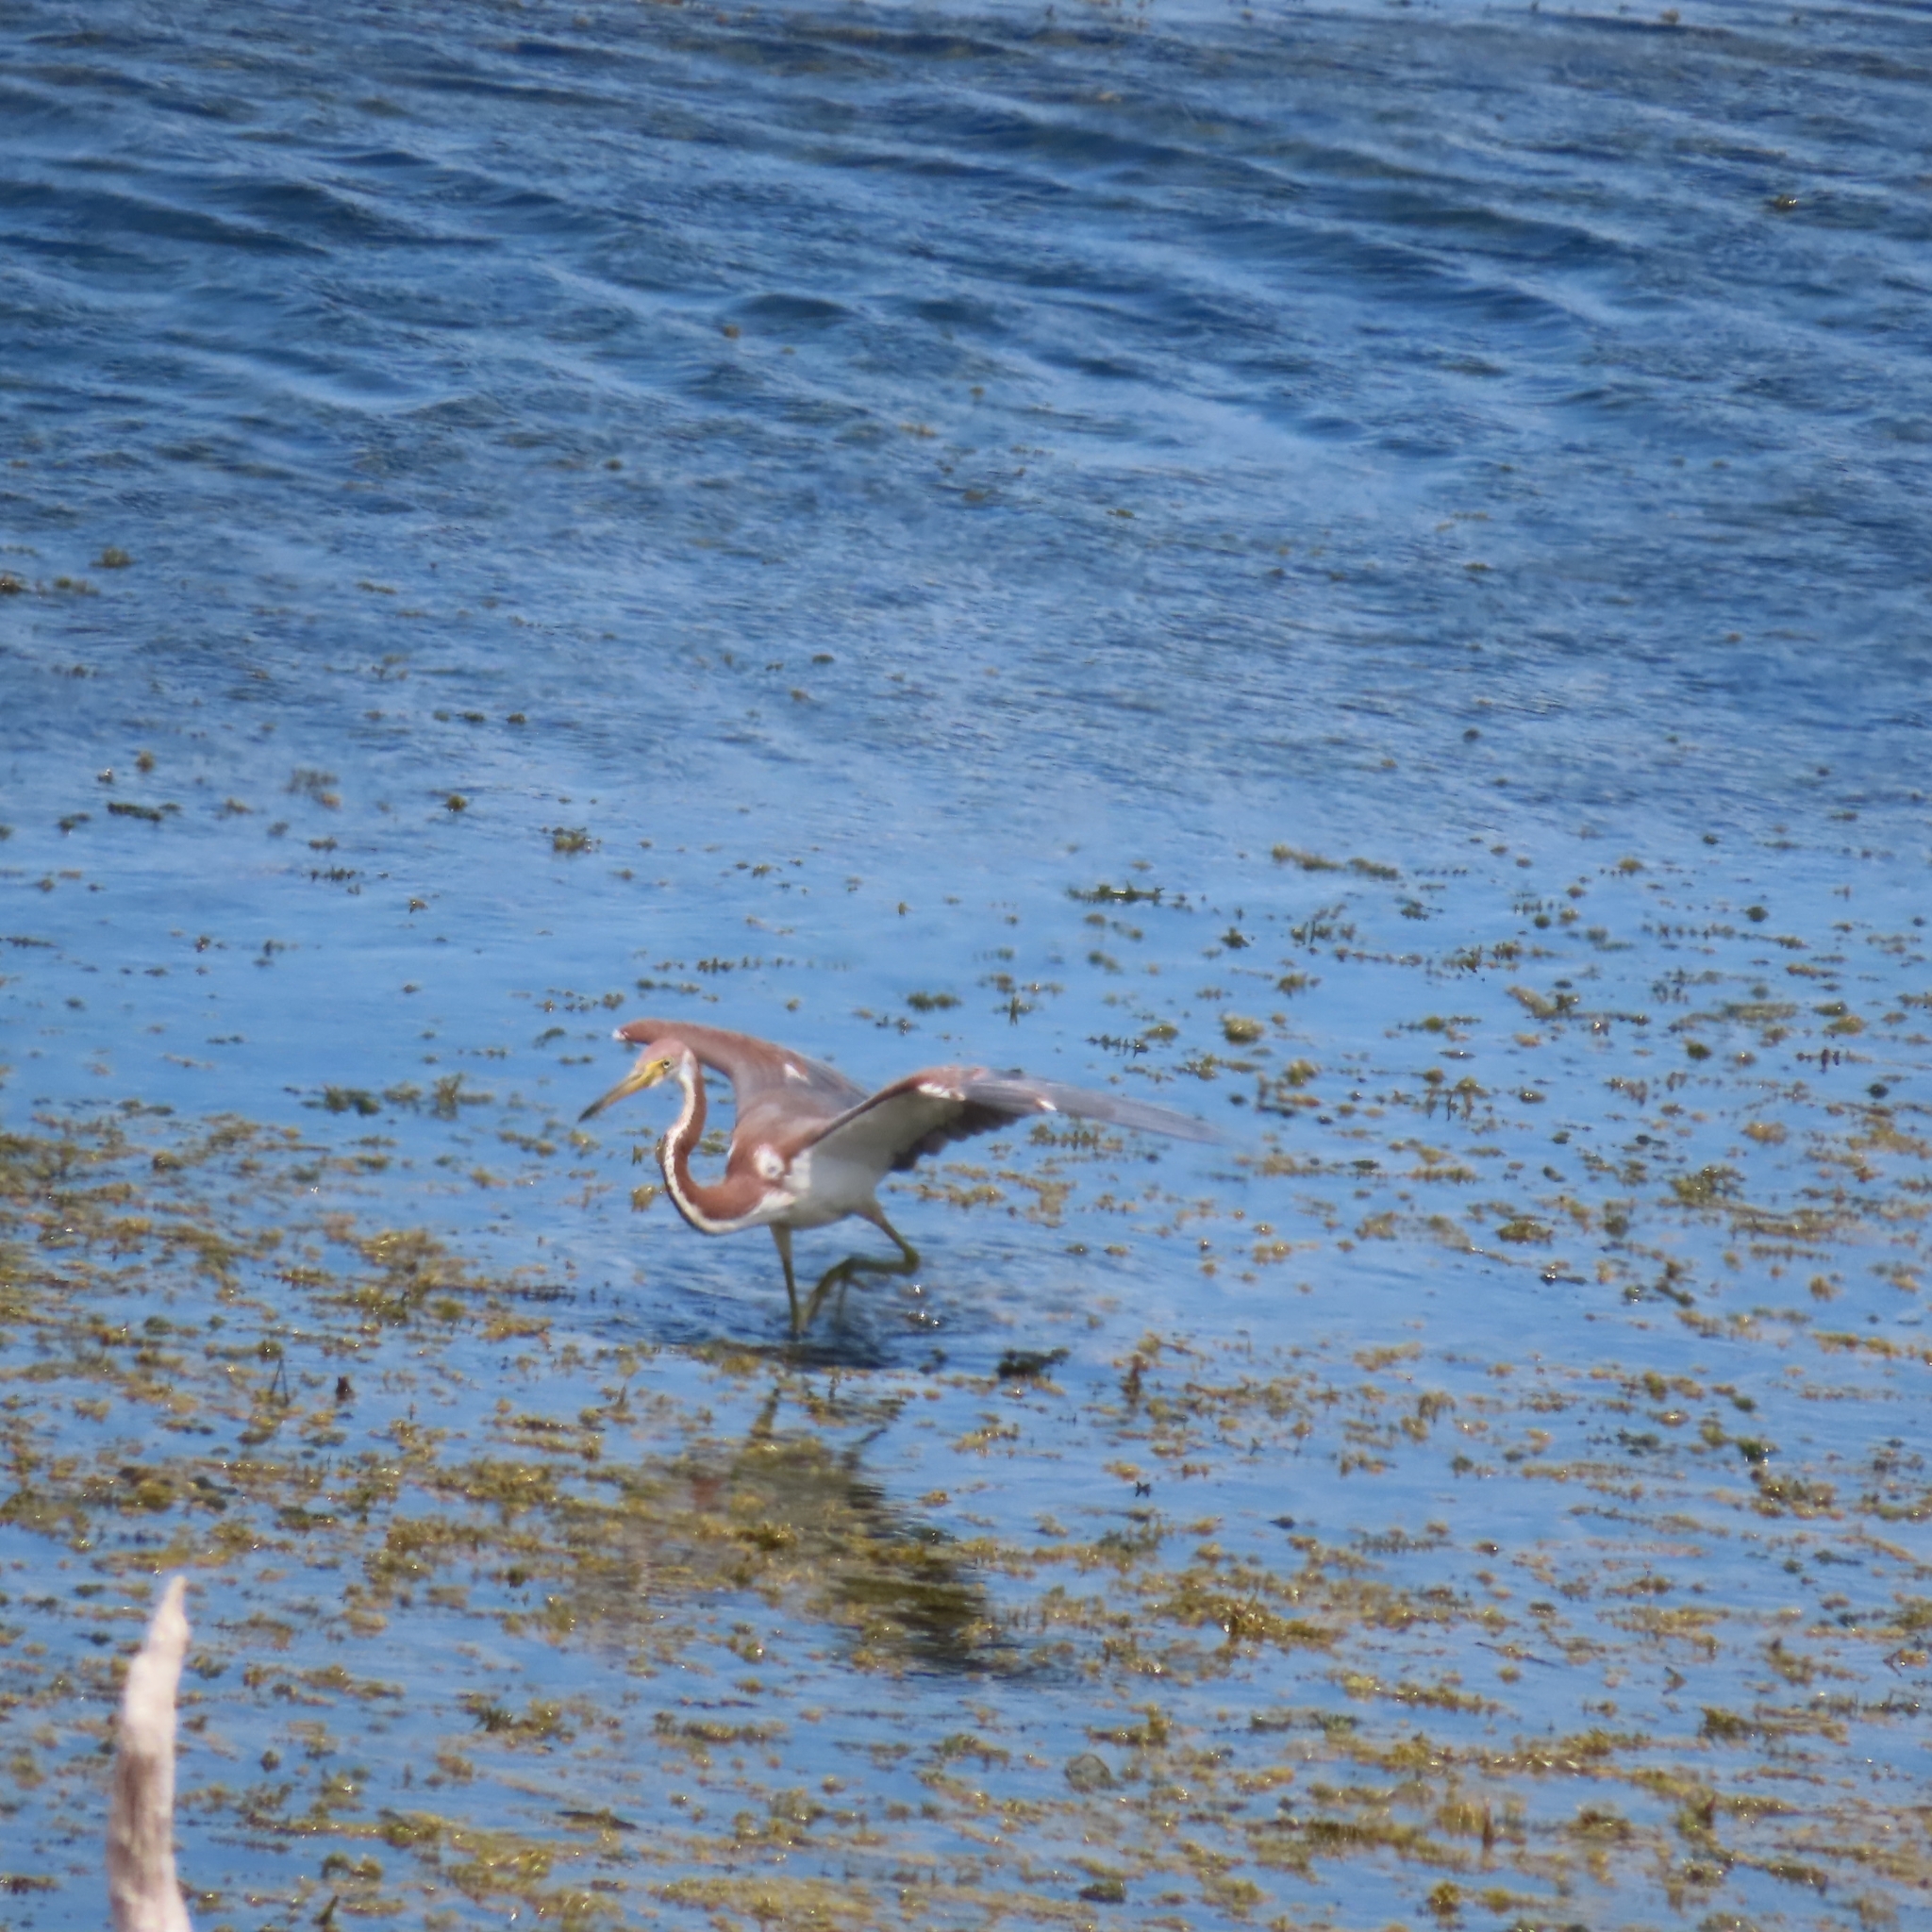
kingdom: Animalia
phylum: Chordata
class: Aves
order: Pelecaniformes
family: Ardeidae
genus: Egretta
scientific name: Egretta tricolor
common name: Tricolored heron
